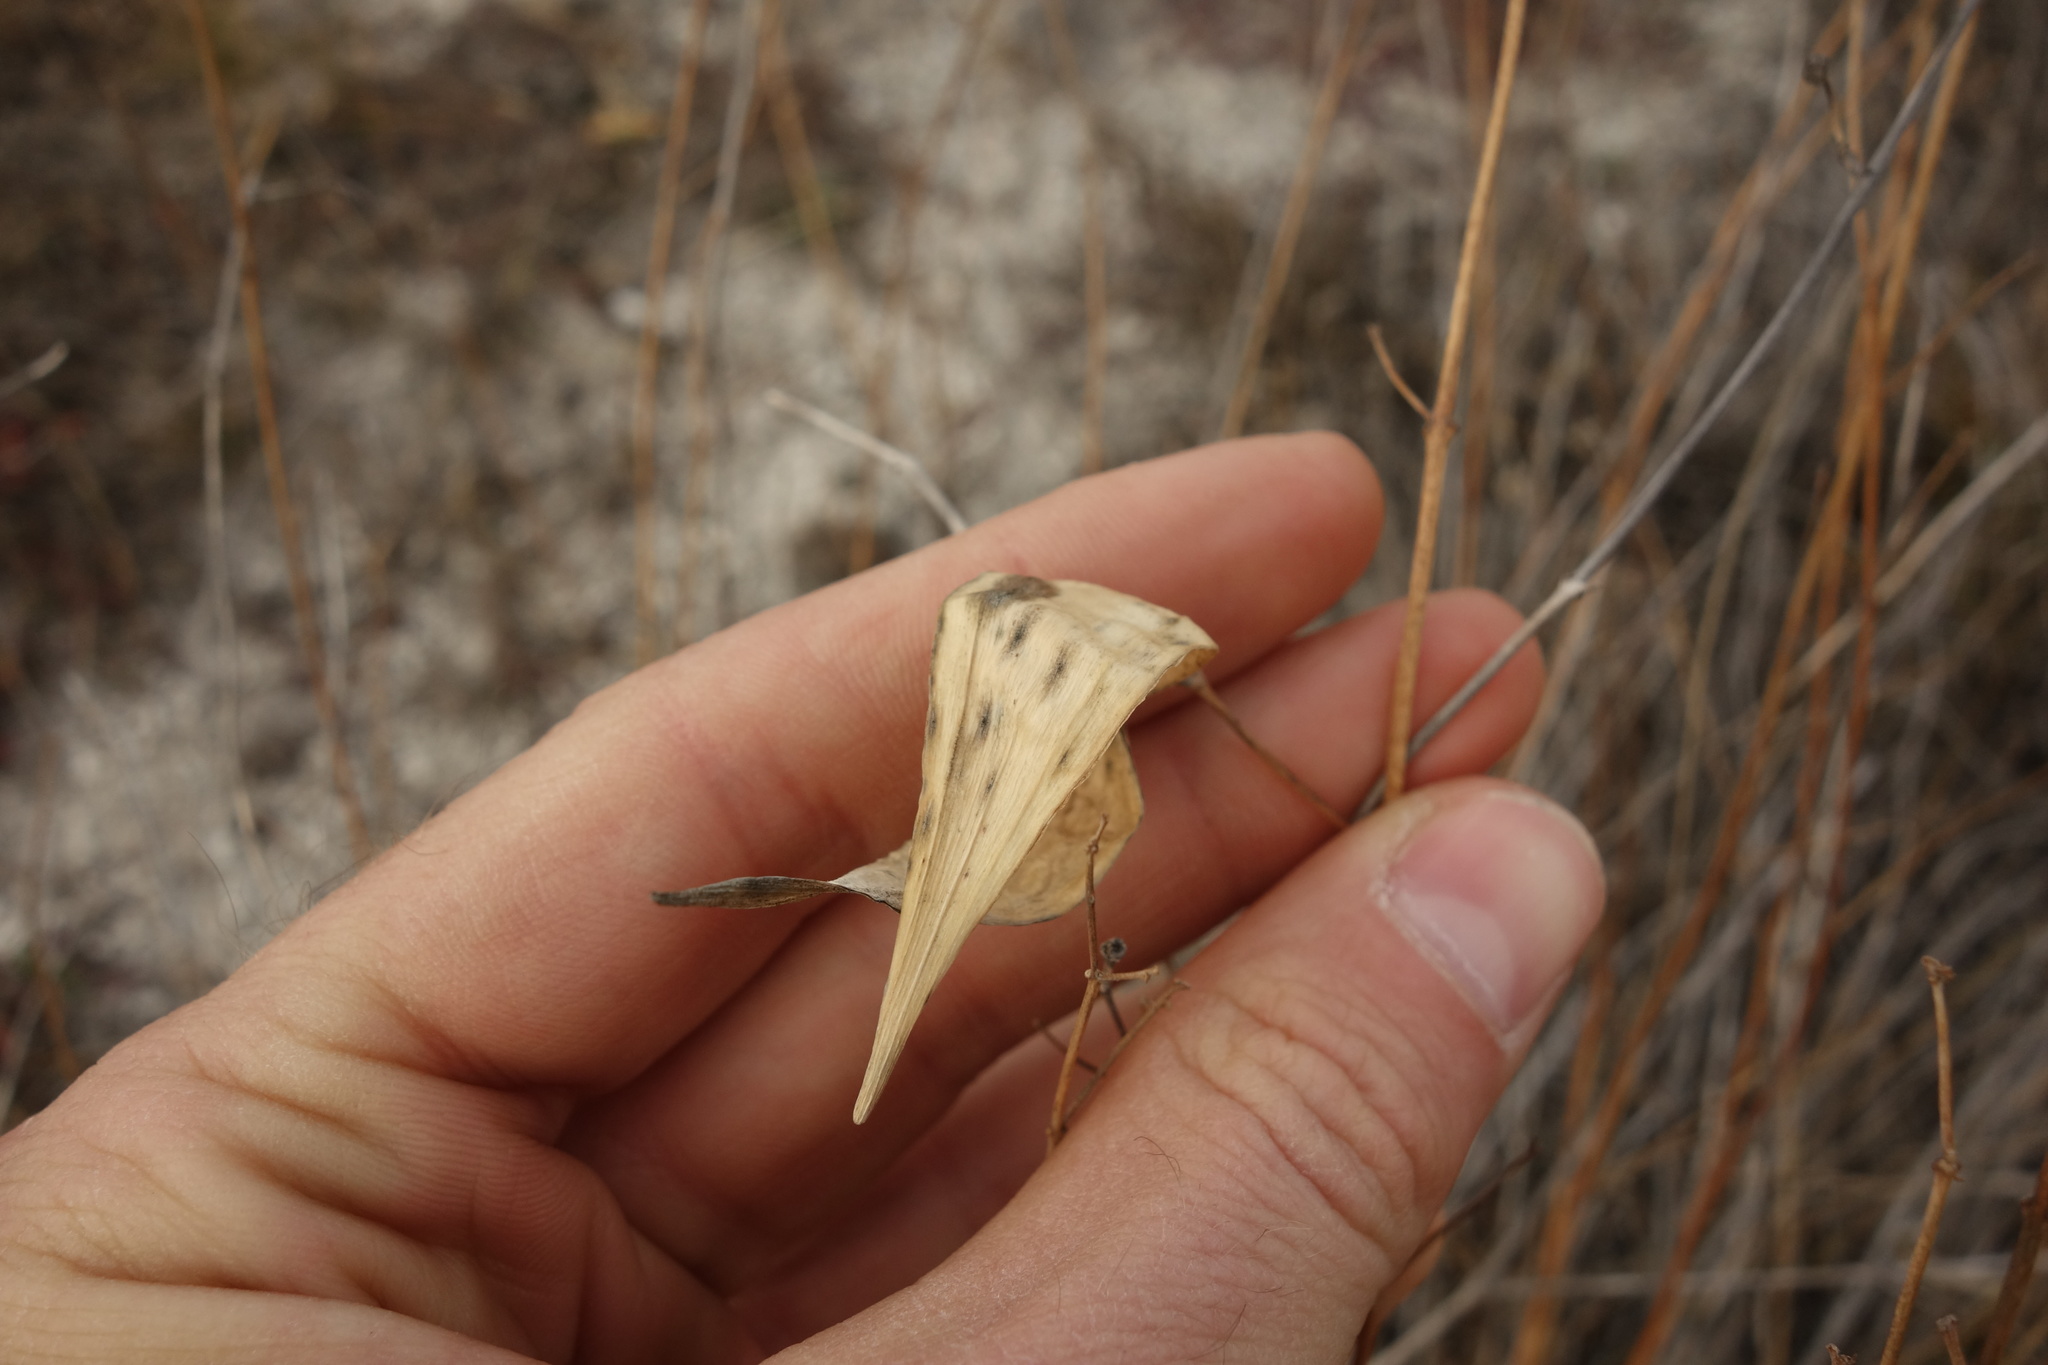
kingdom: Plantae
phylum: Tracheophyta
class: Magnoliopsida
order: Gentianales
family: Apocynaceae
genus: Vincetoxicum
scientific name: Vincetoxicum hirundinaria
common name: White swallowwort
